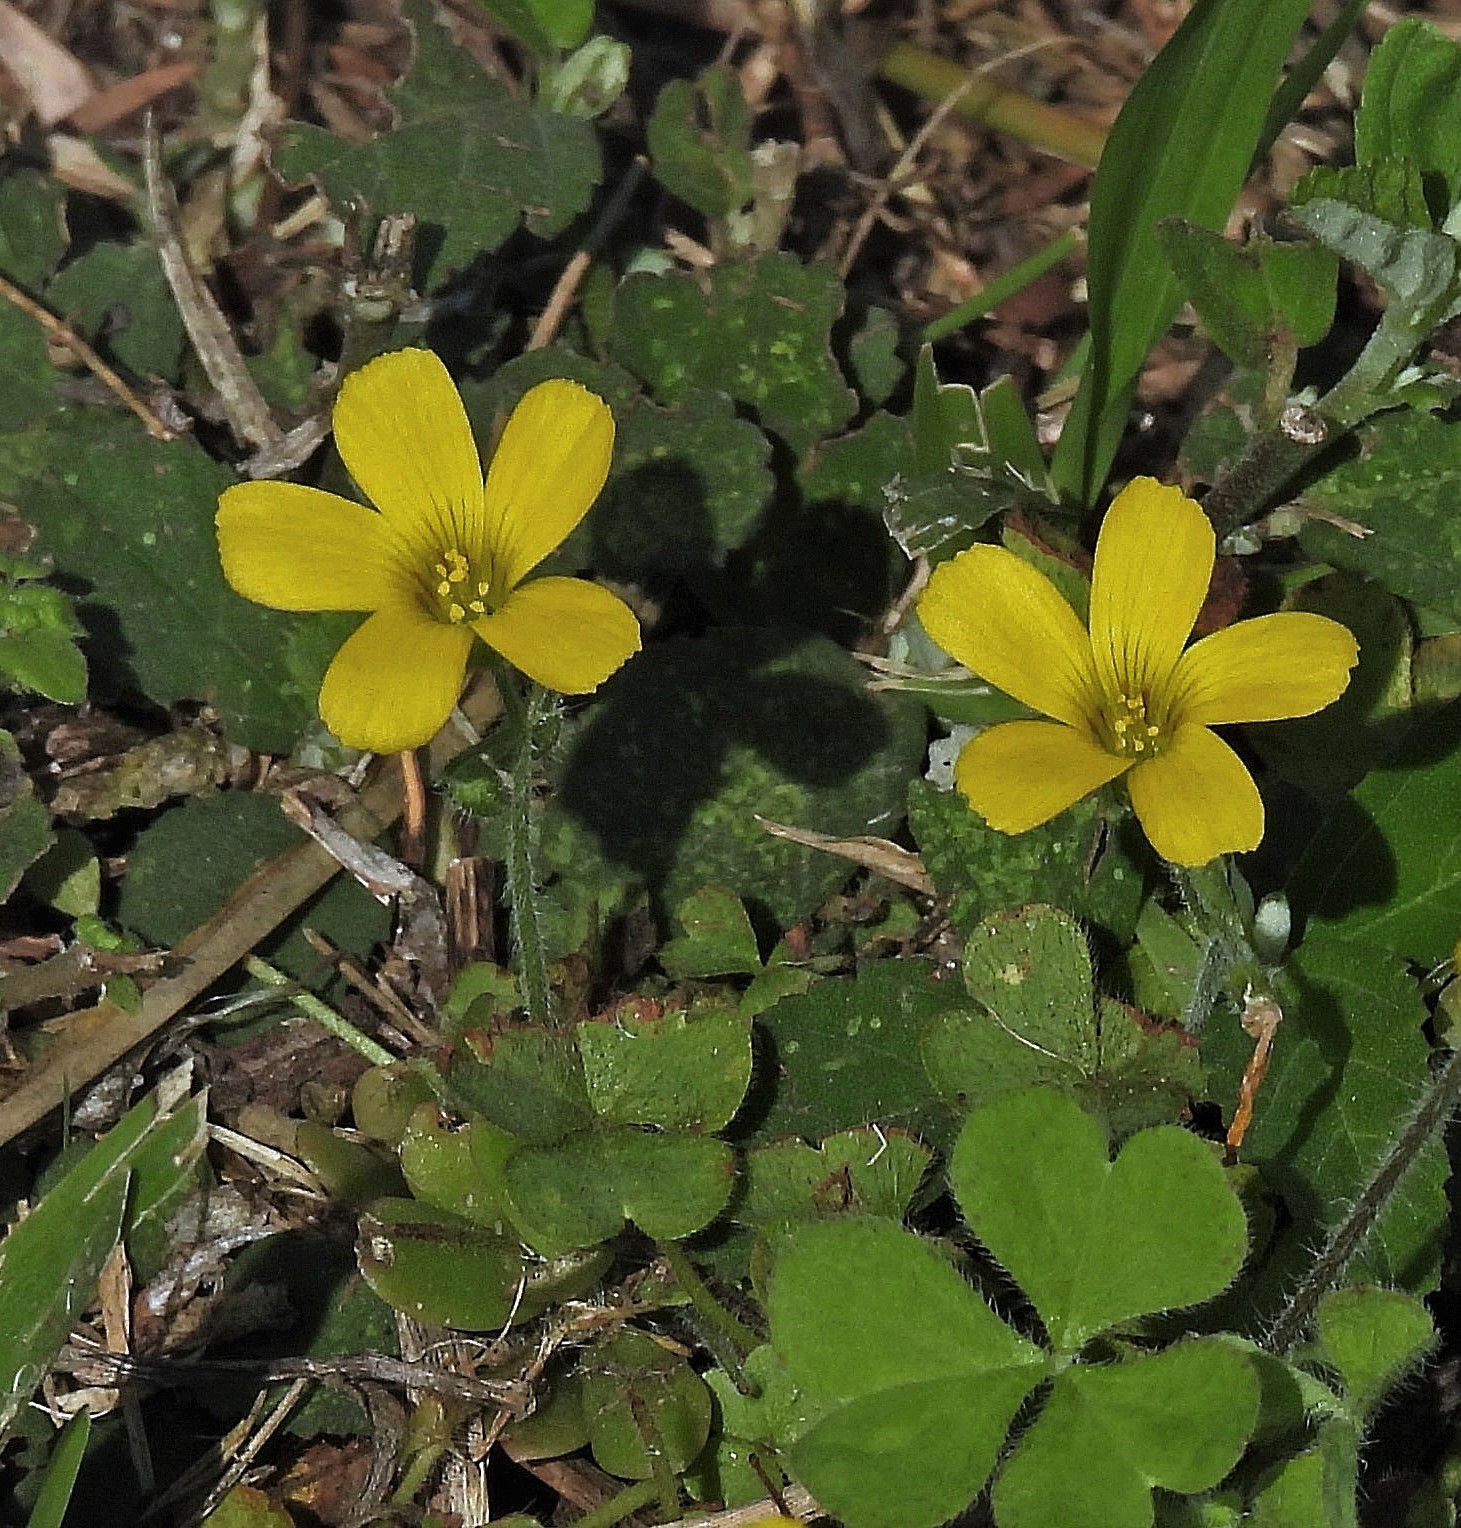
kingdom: Plantae
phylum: Tracheophyta
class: Magnoliopsida
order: Oxalidales
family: Oxalidaceae
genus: Oxalis
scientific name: Oxalis corniculata
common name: Procumbent yellow-sorrel
